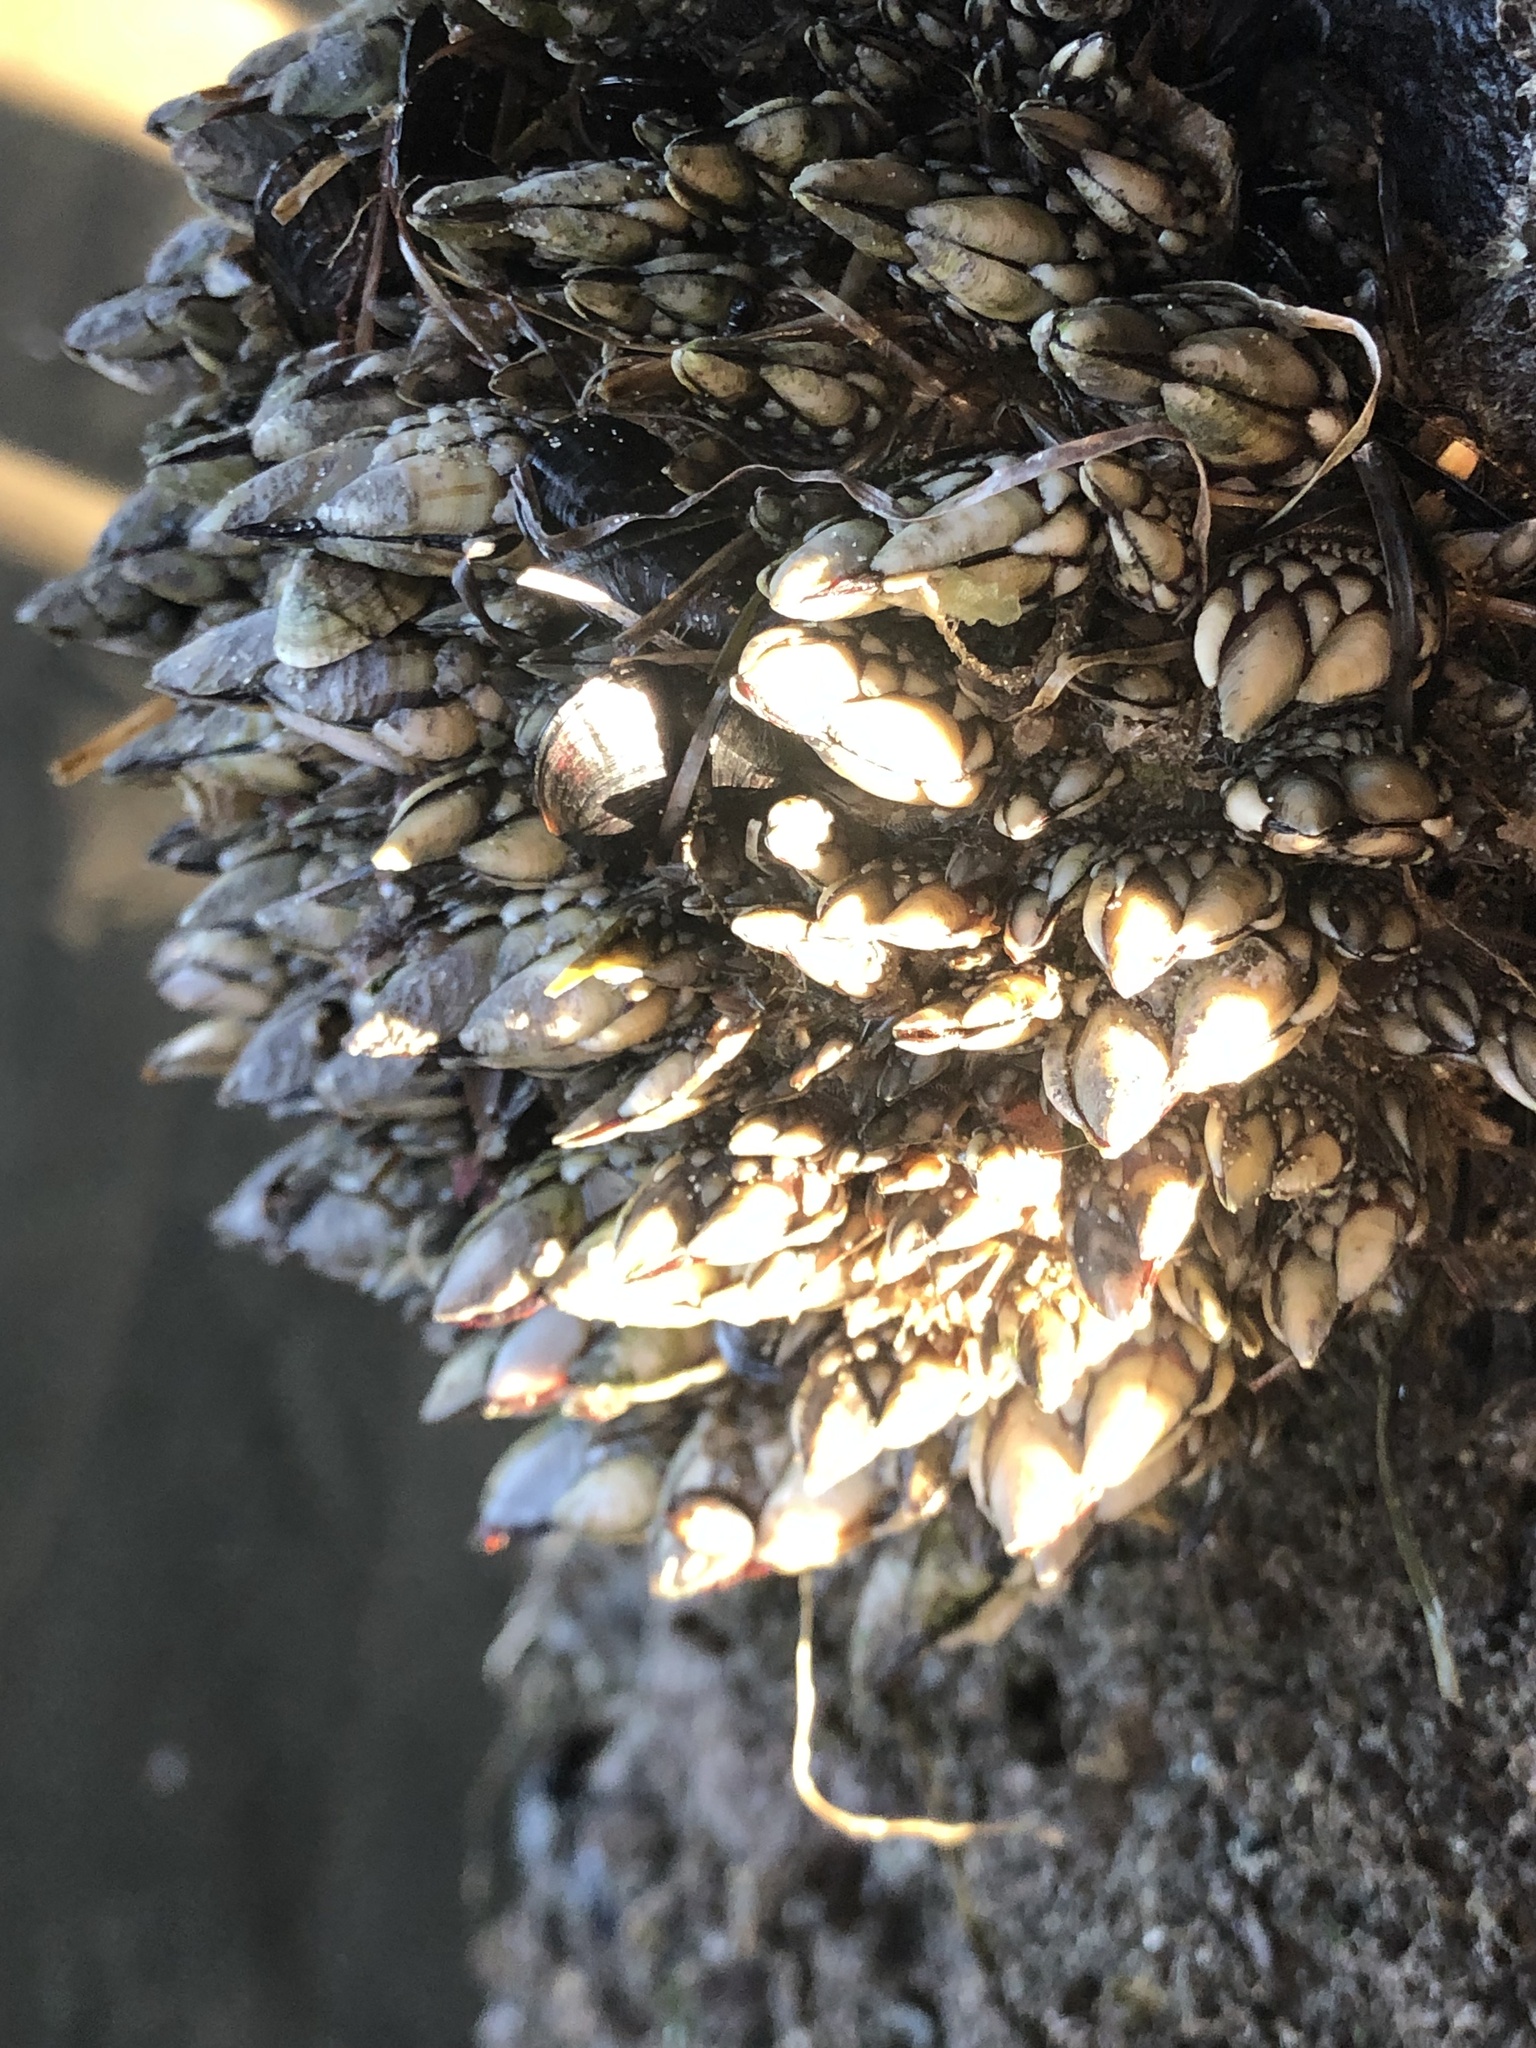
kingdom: Animalia
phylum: Arthropoda
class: Maxillopoda
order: Pedunculata
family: Pollicipedidae
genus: Pollicipes
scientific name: Pollicipes polymerus
